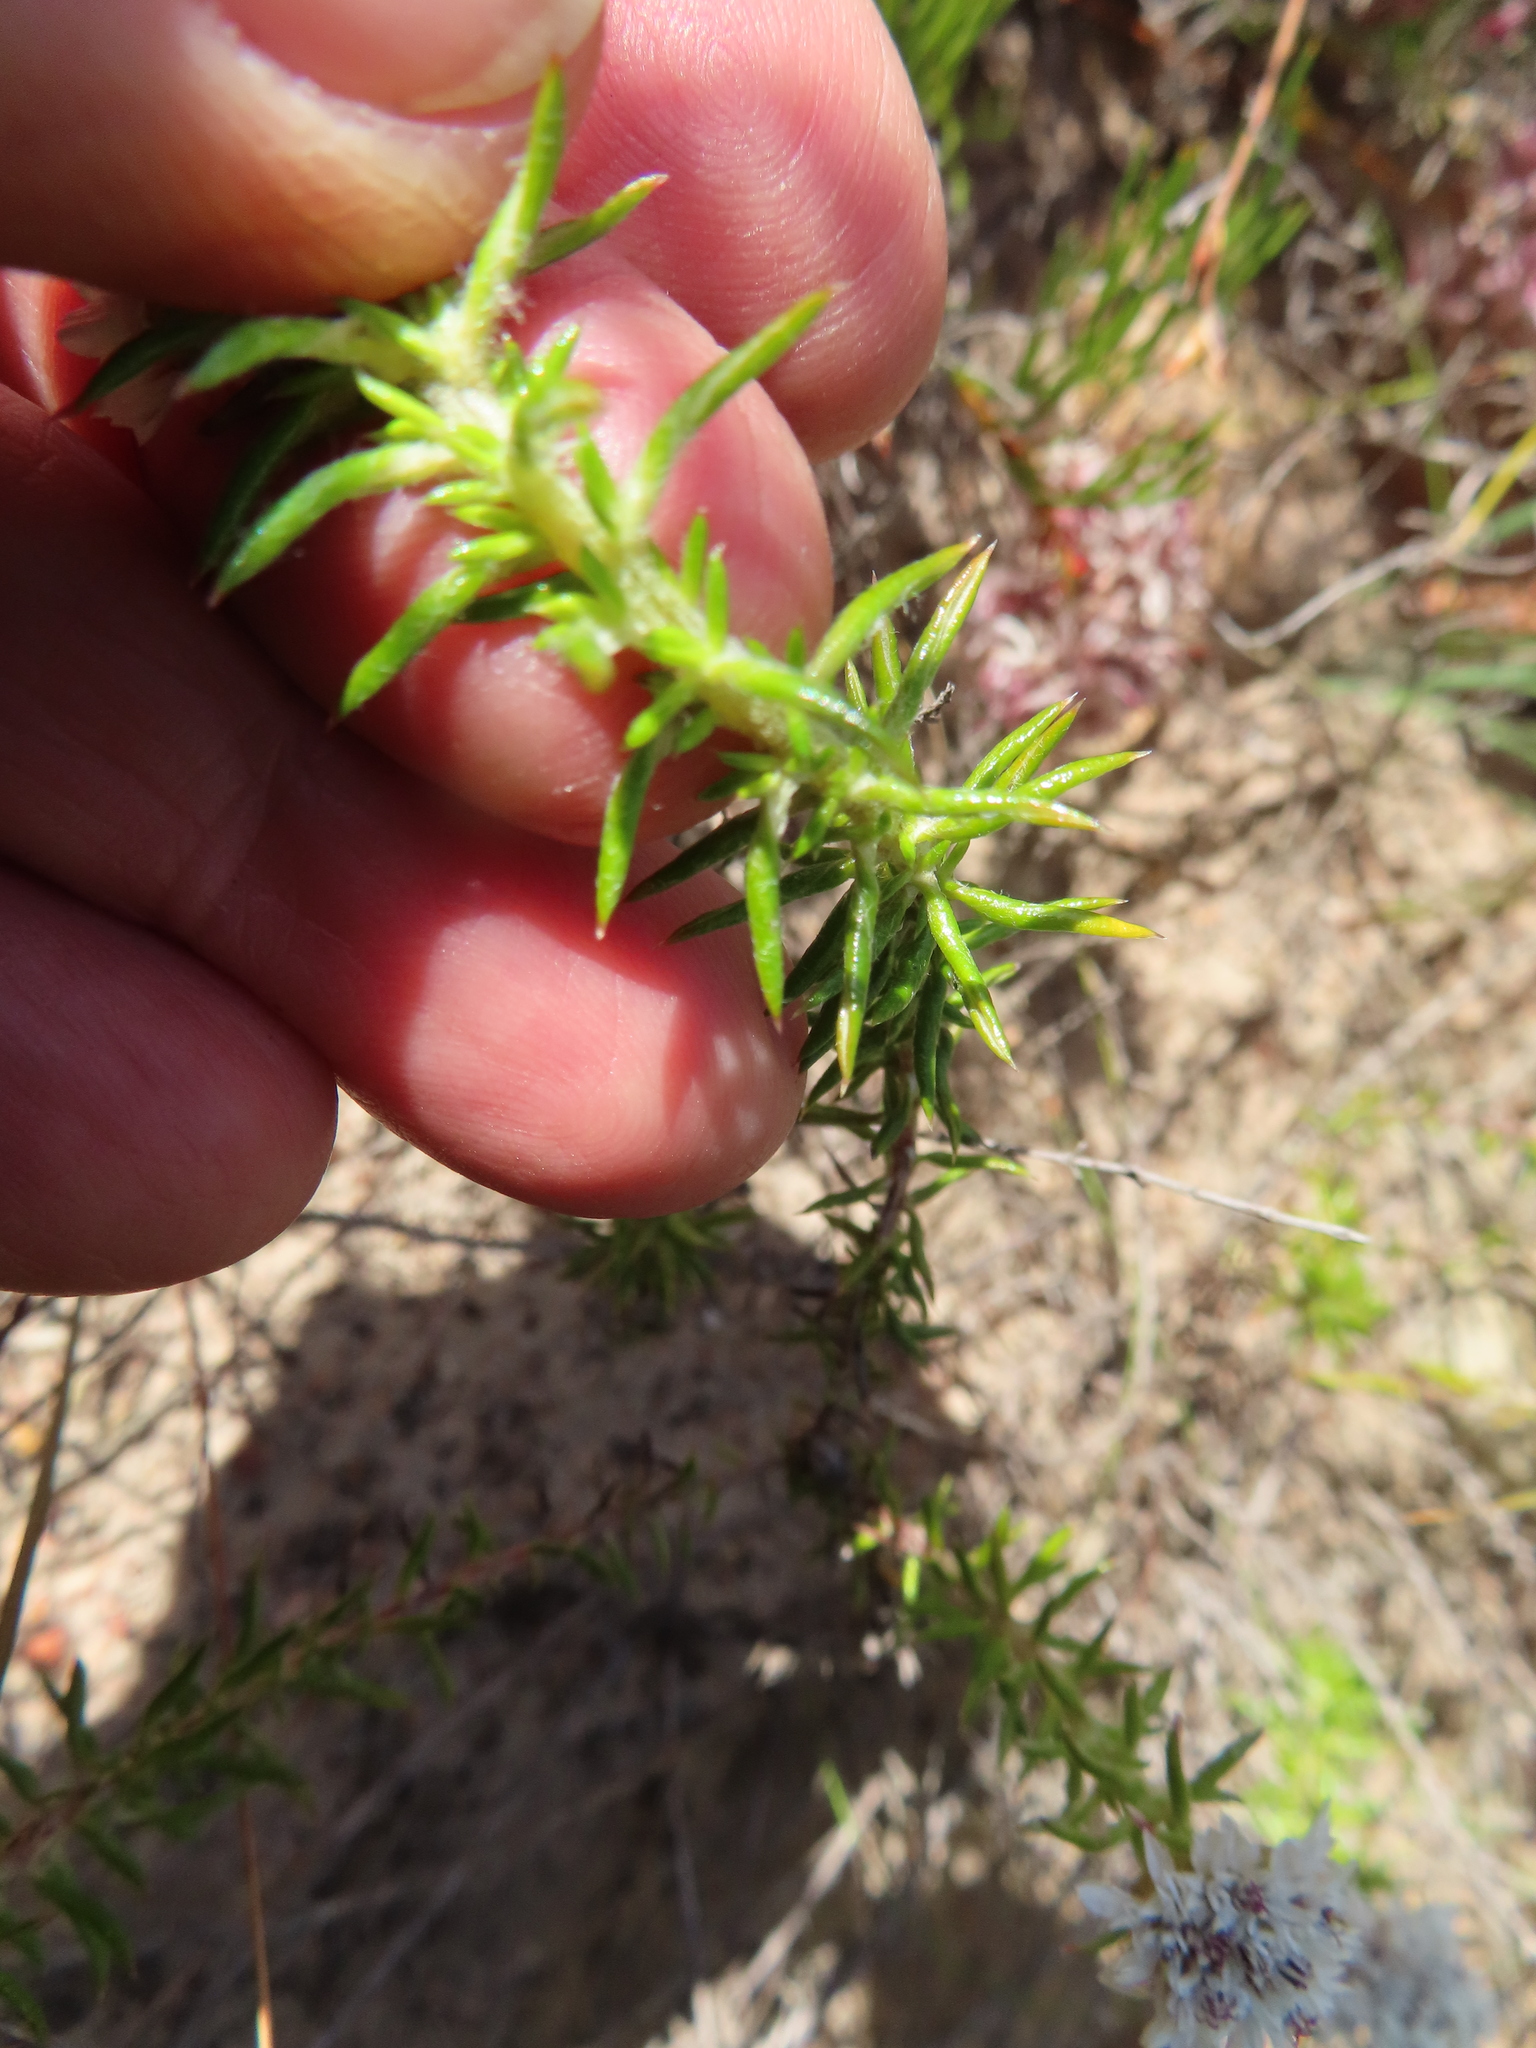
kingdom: Plantae
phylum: Tracheophyta
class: Magnoliopsida
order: Asterales
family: Asteraceae
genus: Metalasia
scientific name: Metalasia inversa
